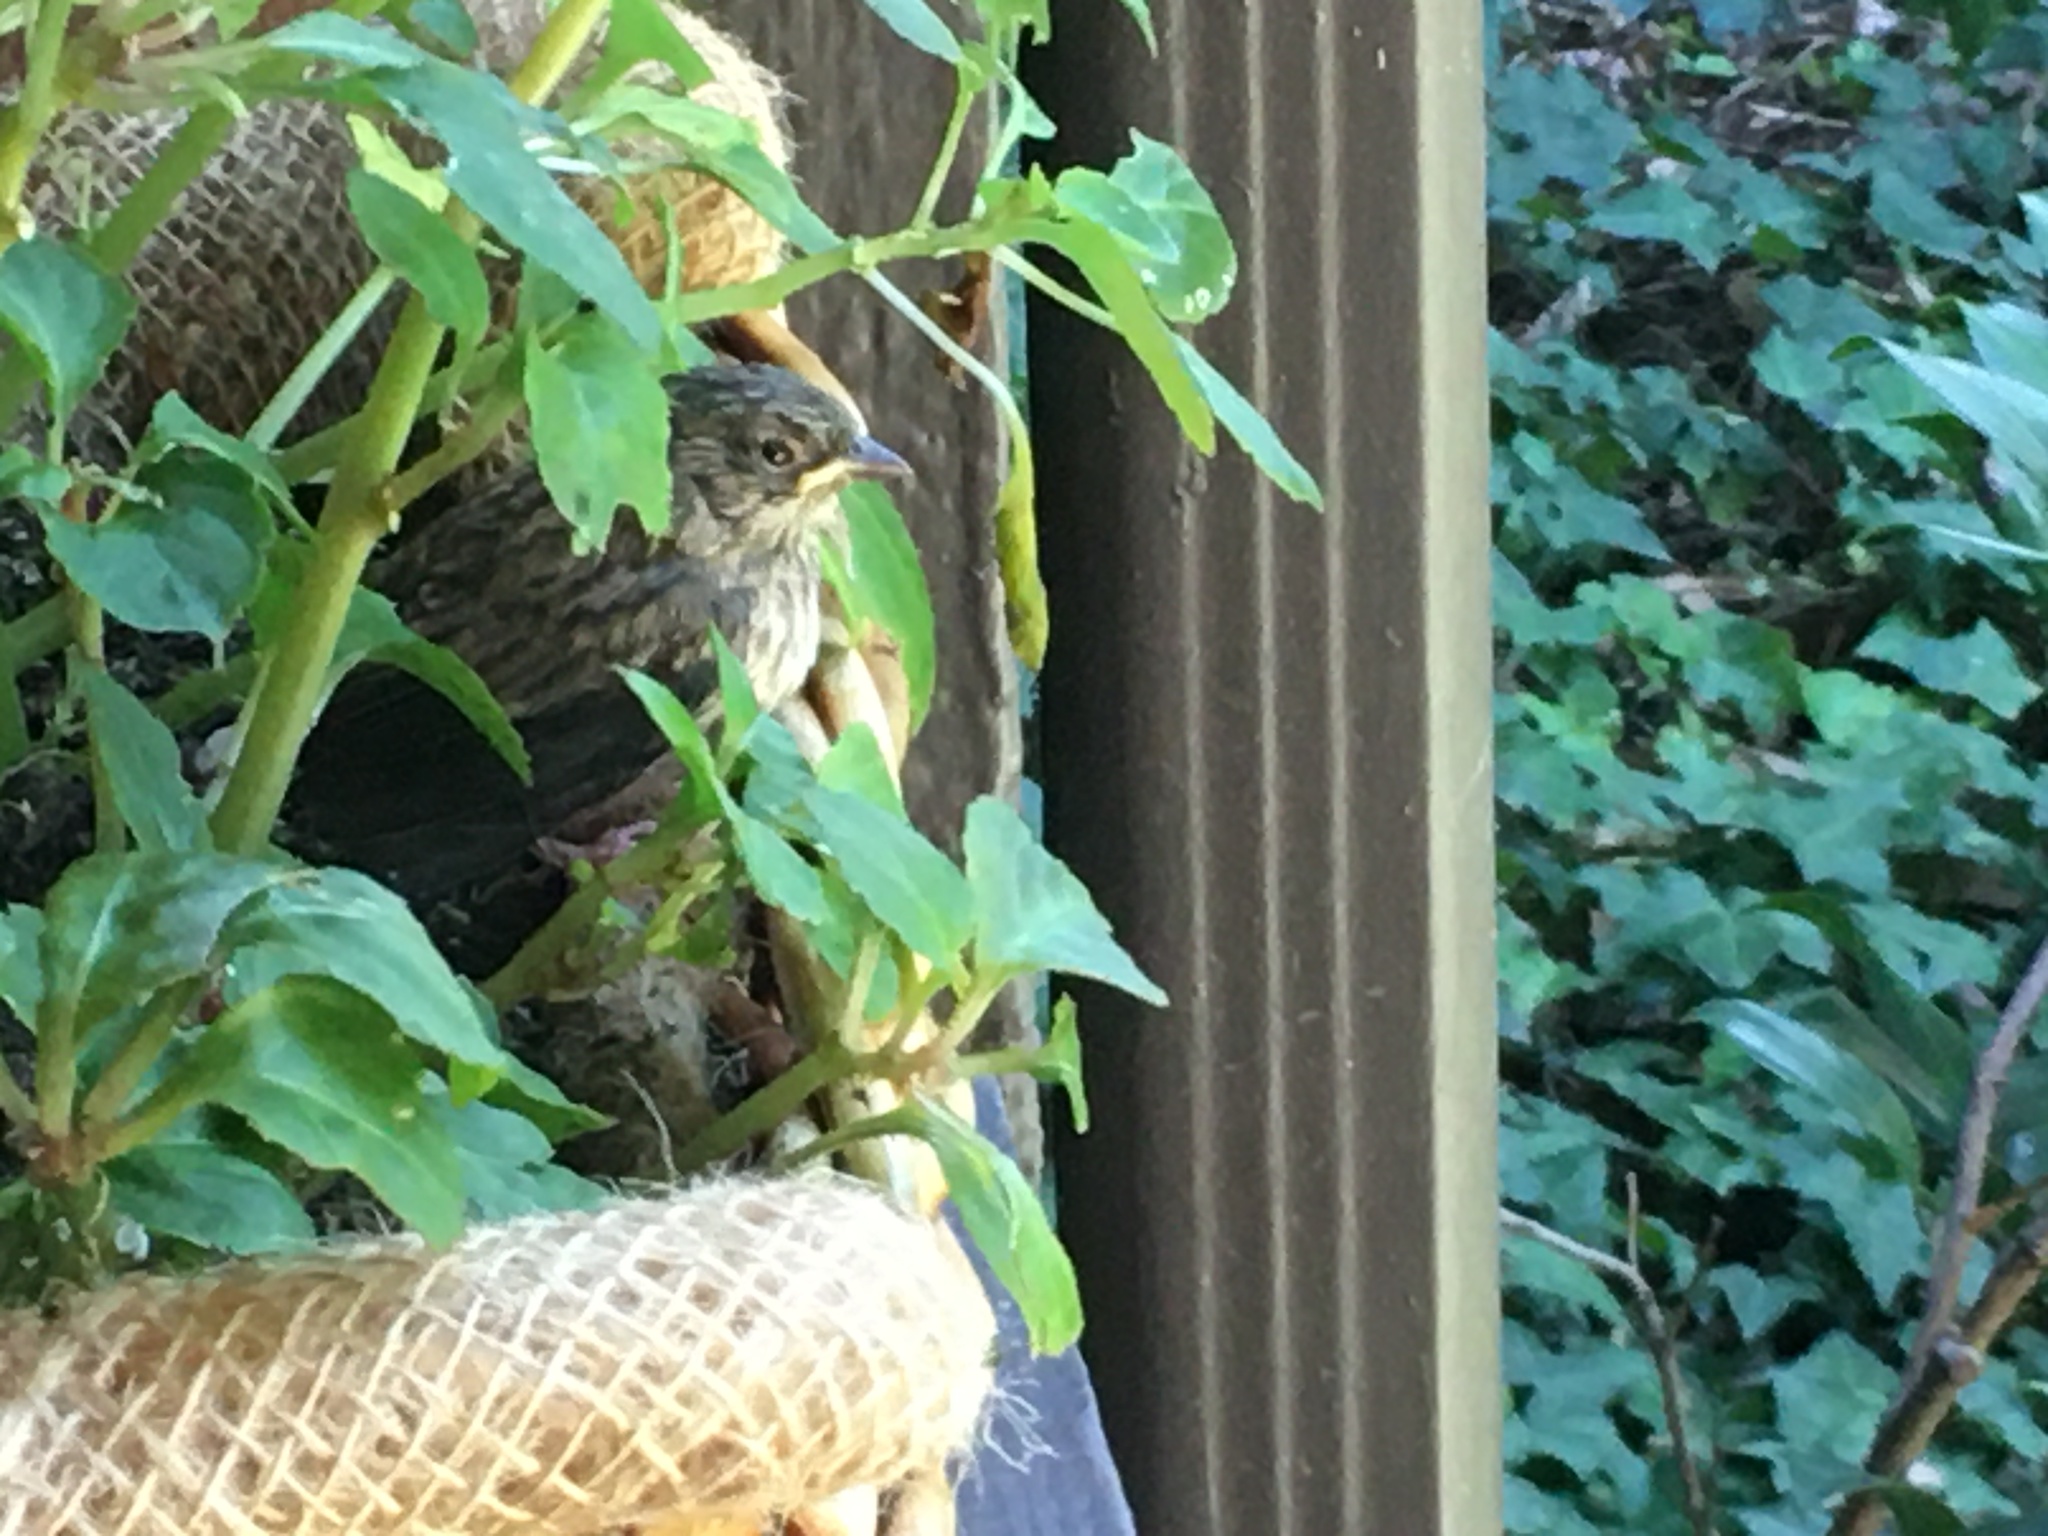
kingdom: Animalia
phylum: Chordata
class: Aves
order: Passeriformes
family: Passerellidae
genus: Junco
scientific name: Junco hyemalis
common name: Dark-eyed junco
